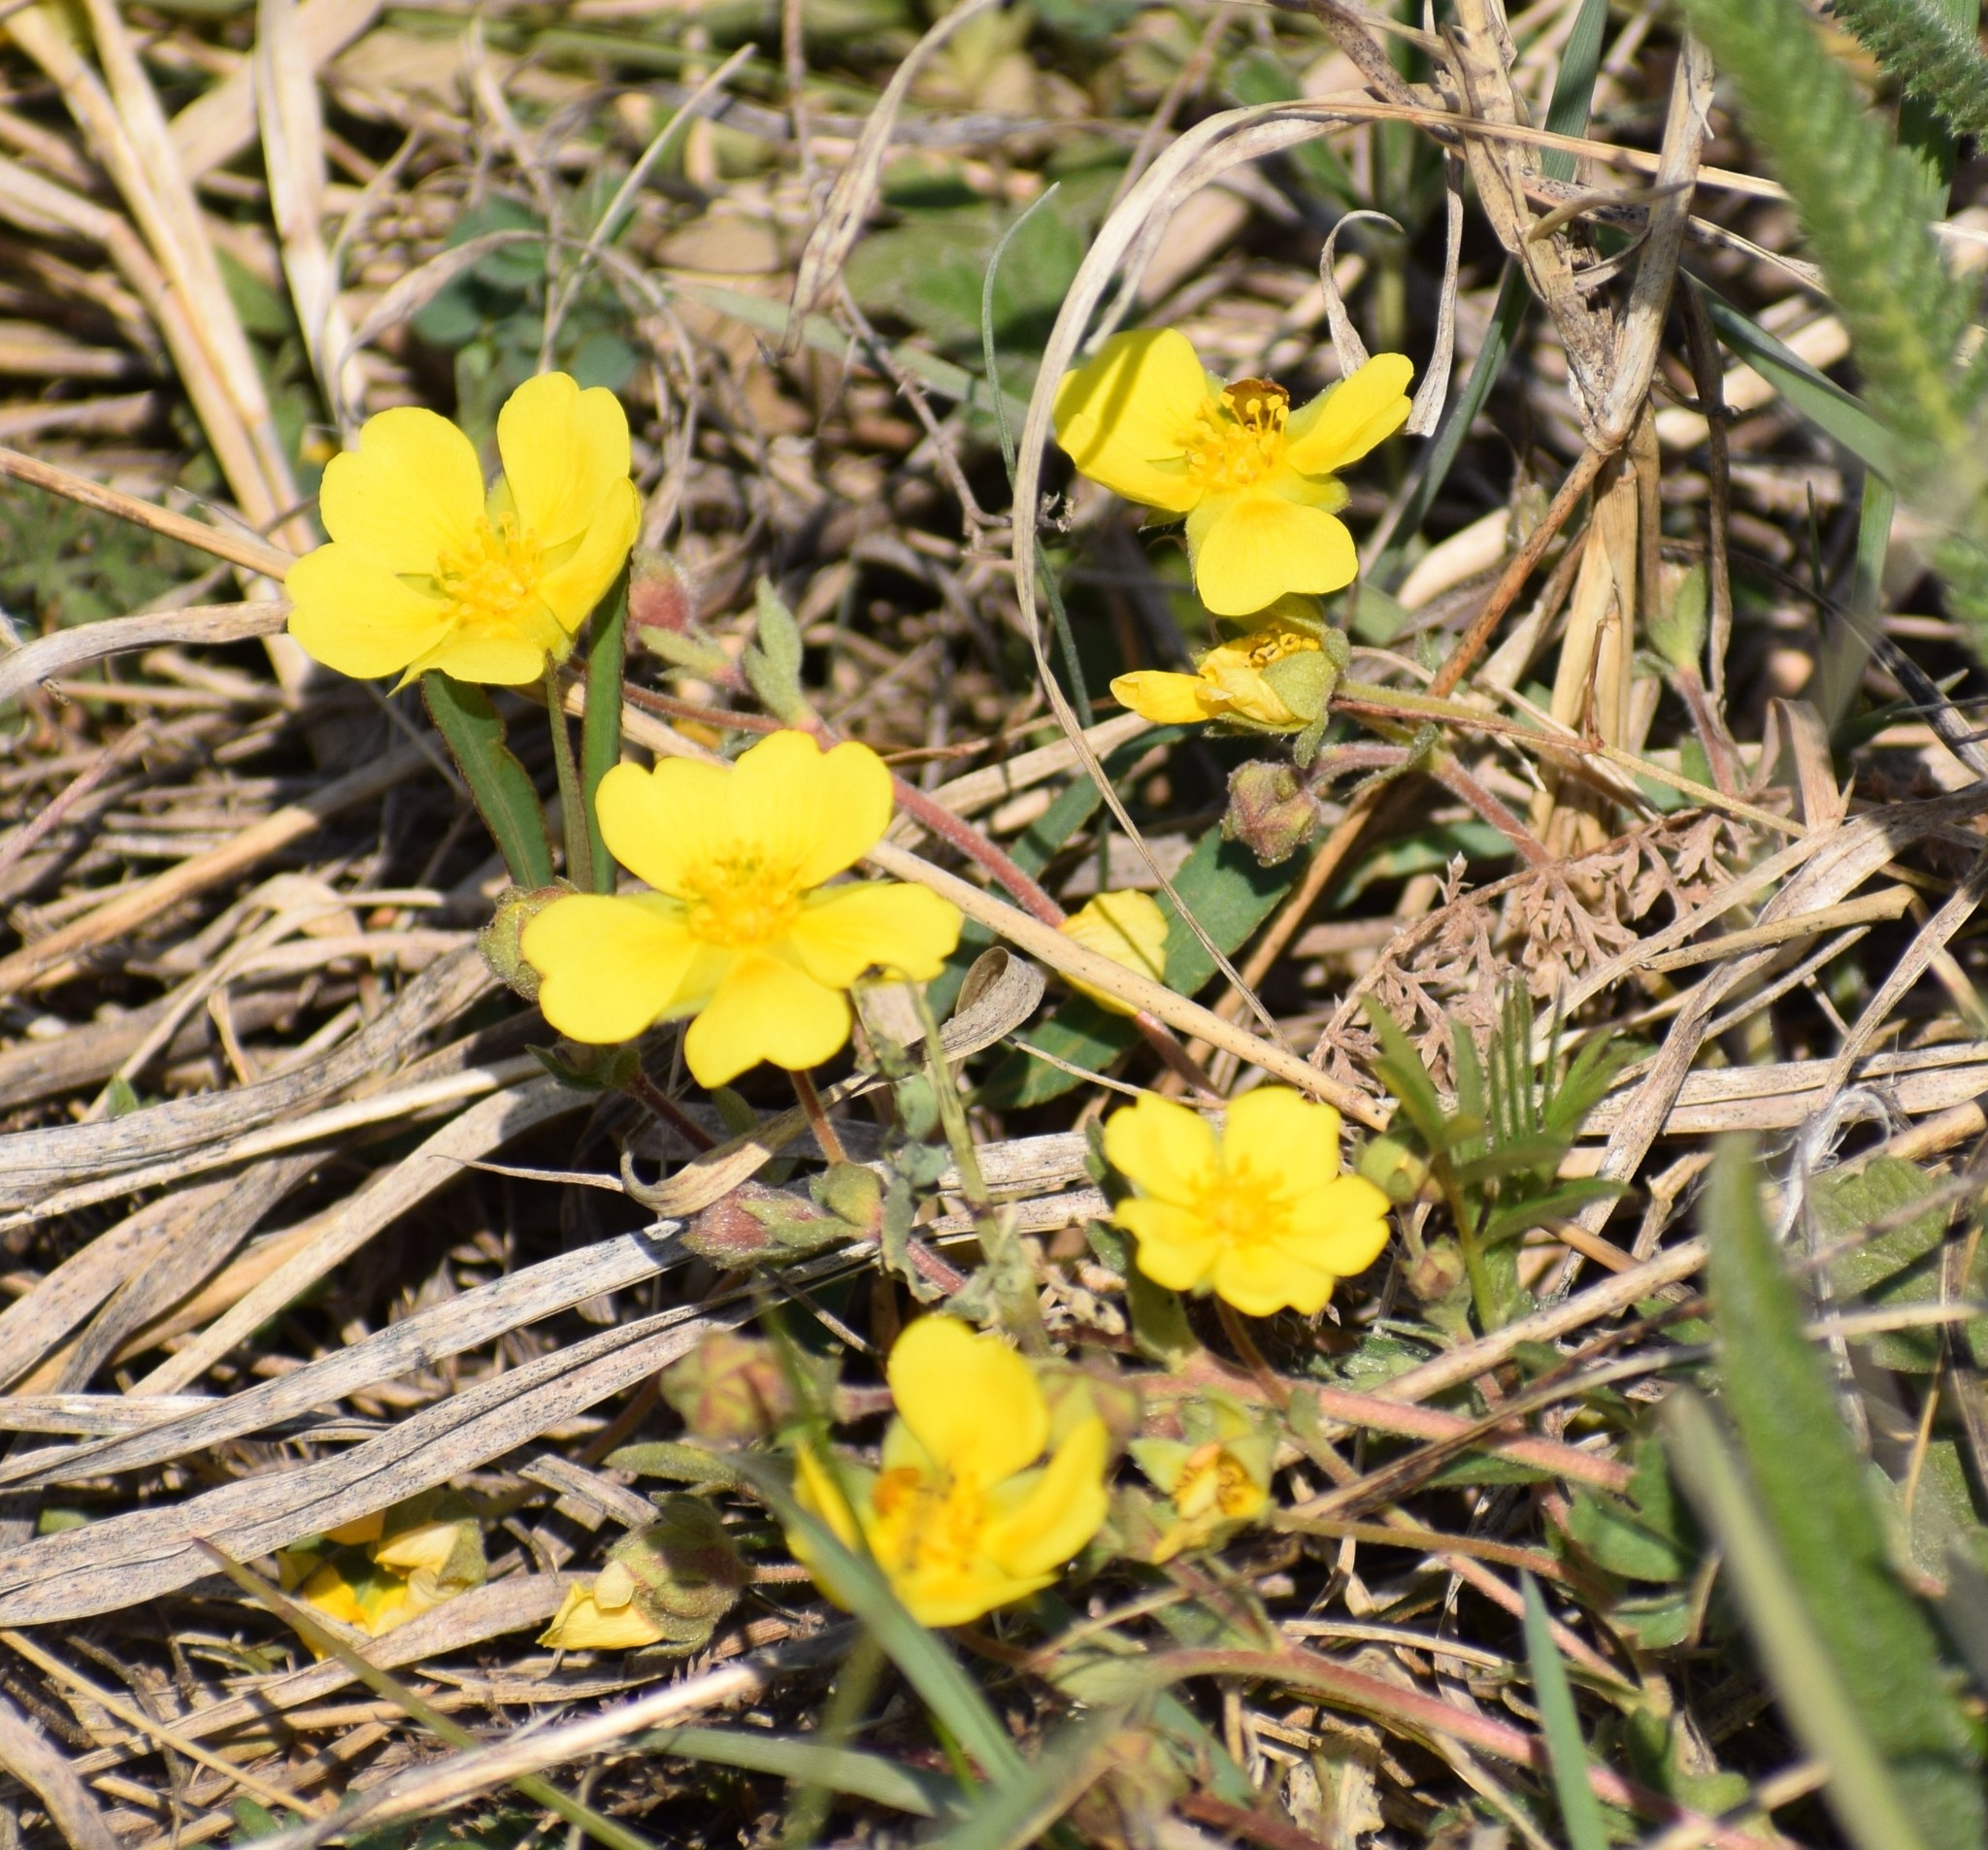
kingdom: Plantae
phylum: Tracheophyta
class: Magnoliopsida
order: Rosales
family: Rosaceae
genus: Potentilla
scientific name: Potentilla argentea
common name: Hoary cinquefoil
